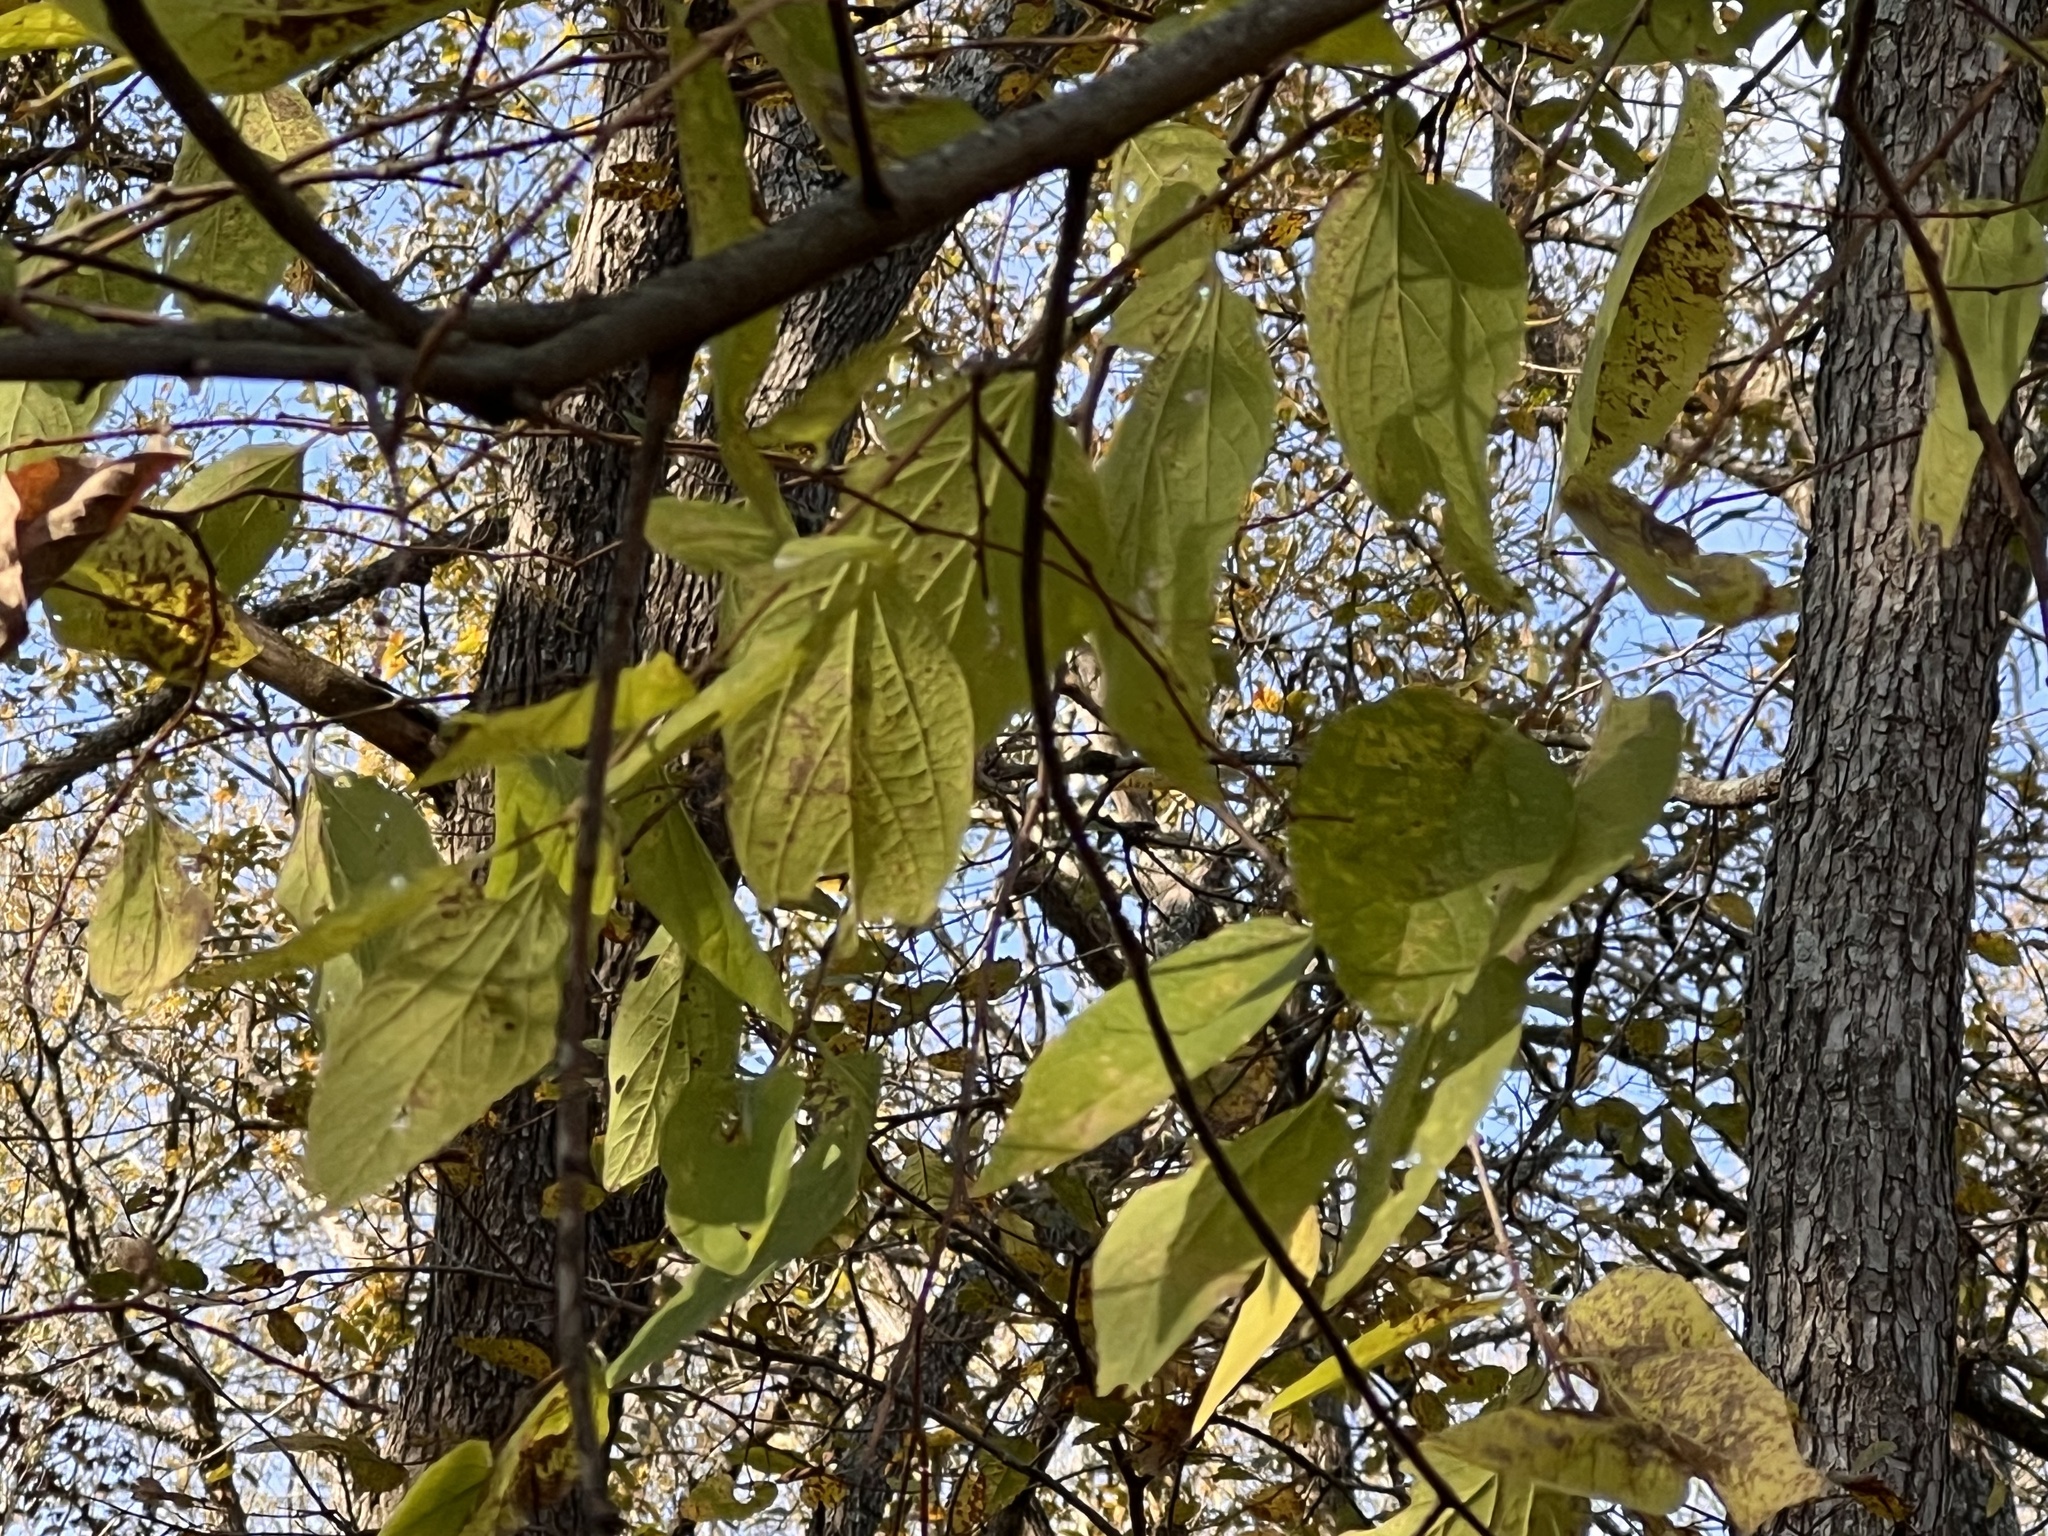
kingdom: Plantae
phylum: Tracheophyta
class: Magnoliopsida
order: Rosales
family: Cannabaceae
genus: Celtis
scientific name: Celtis laevigata
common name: Sugarberry
